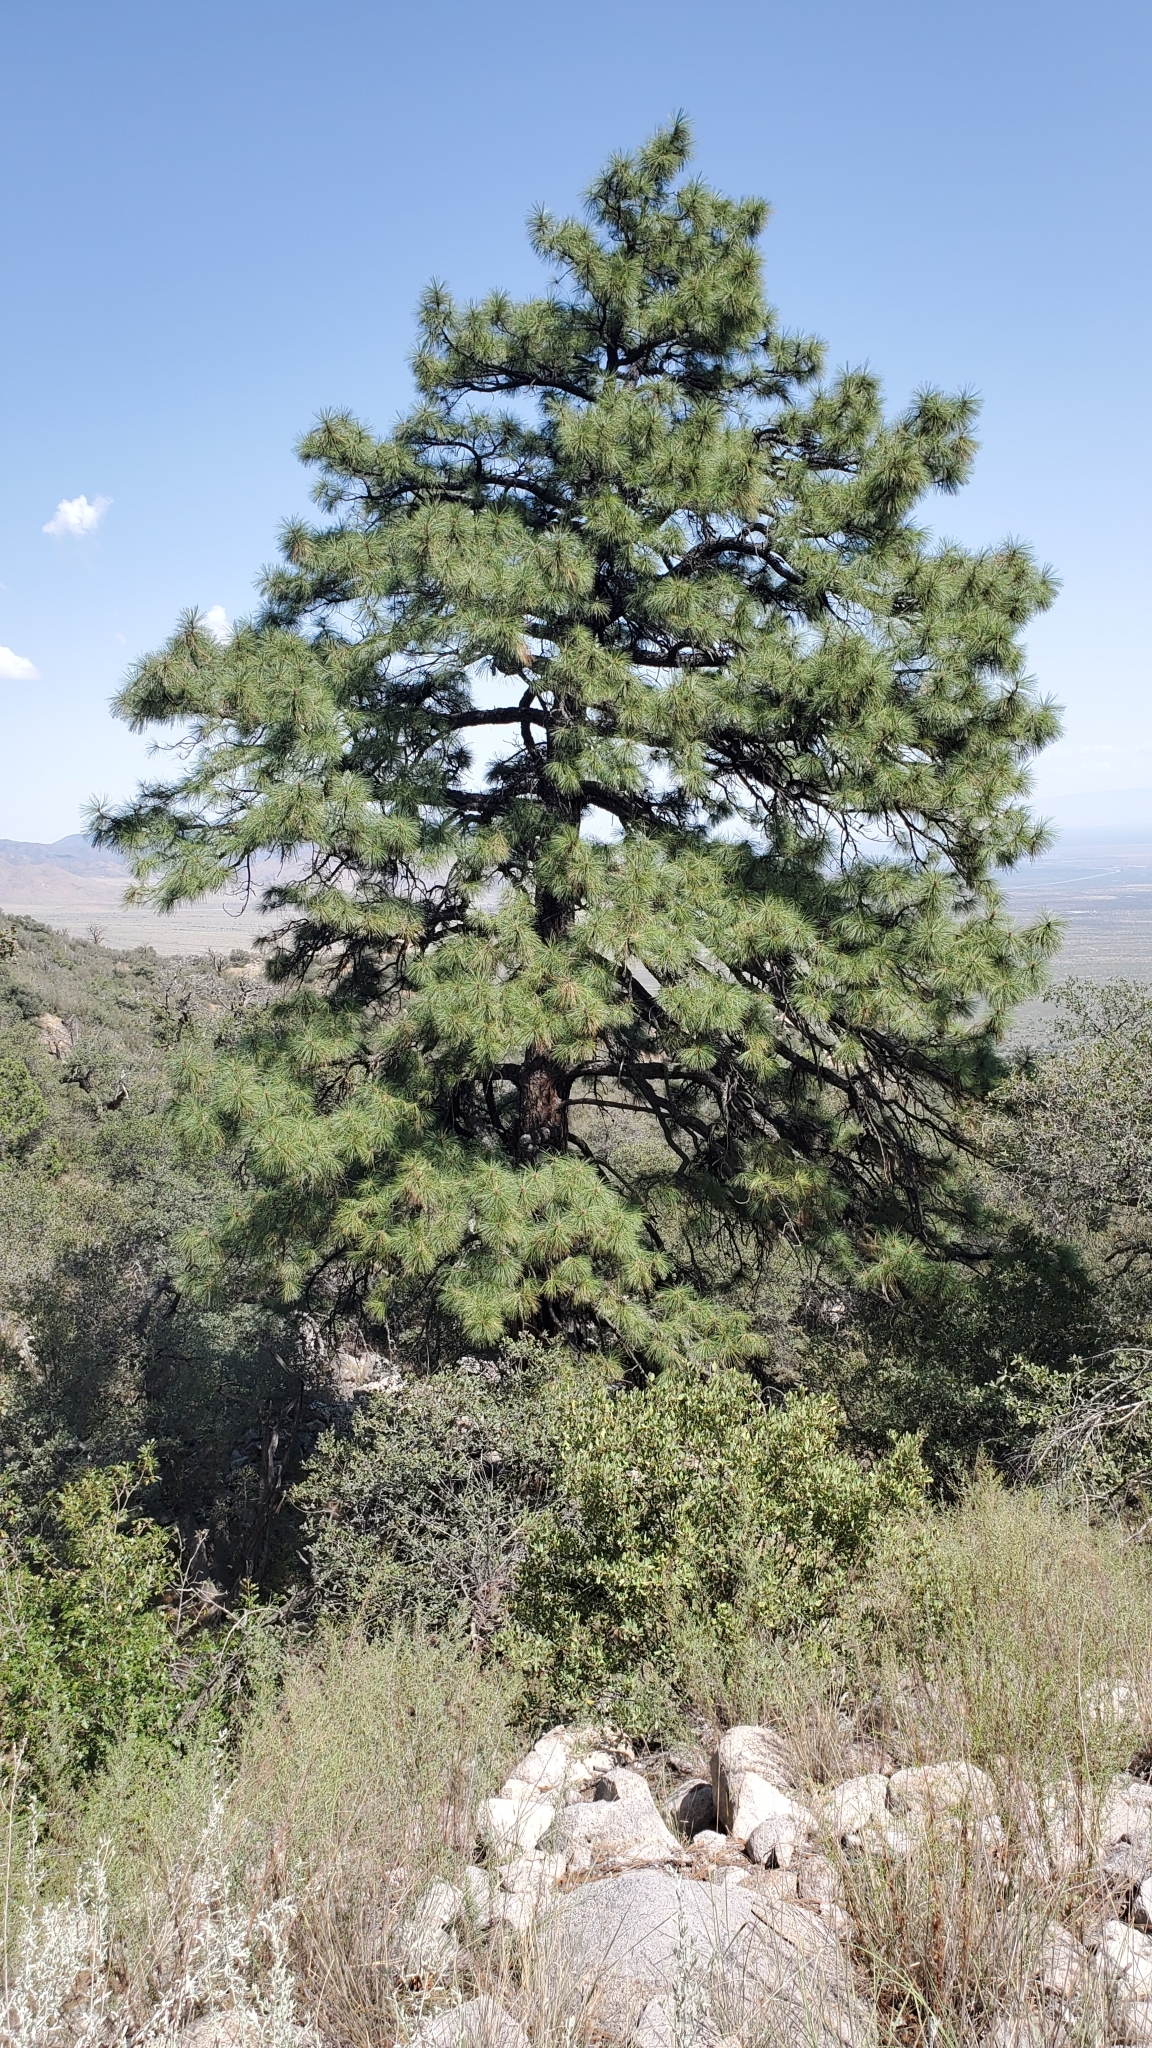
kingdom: Plantae
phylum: Tracheophyta
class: Pinopsida
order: Pinales
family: Pinaceae
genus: Pinus
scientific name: Pinus ponderosa
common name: Western yellow-pine
